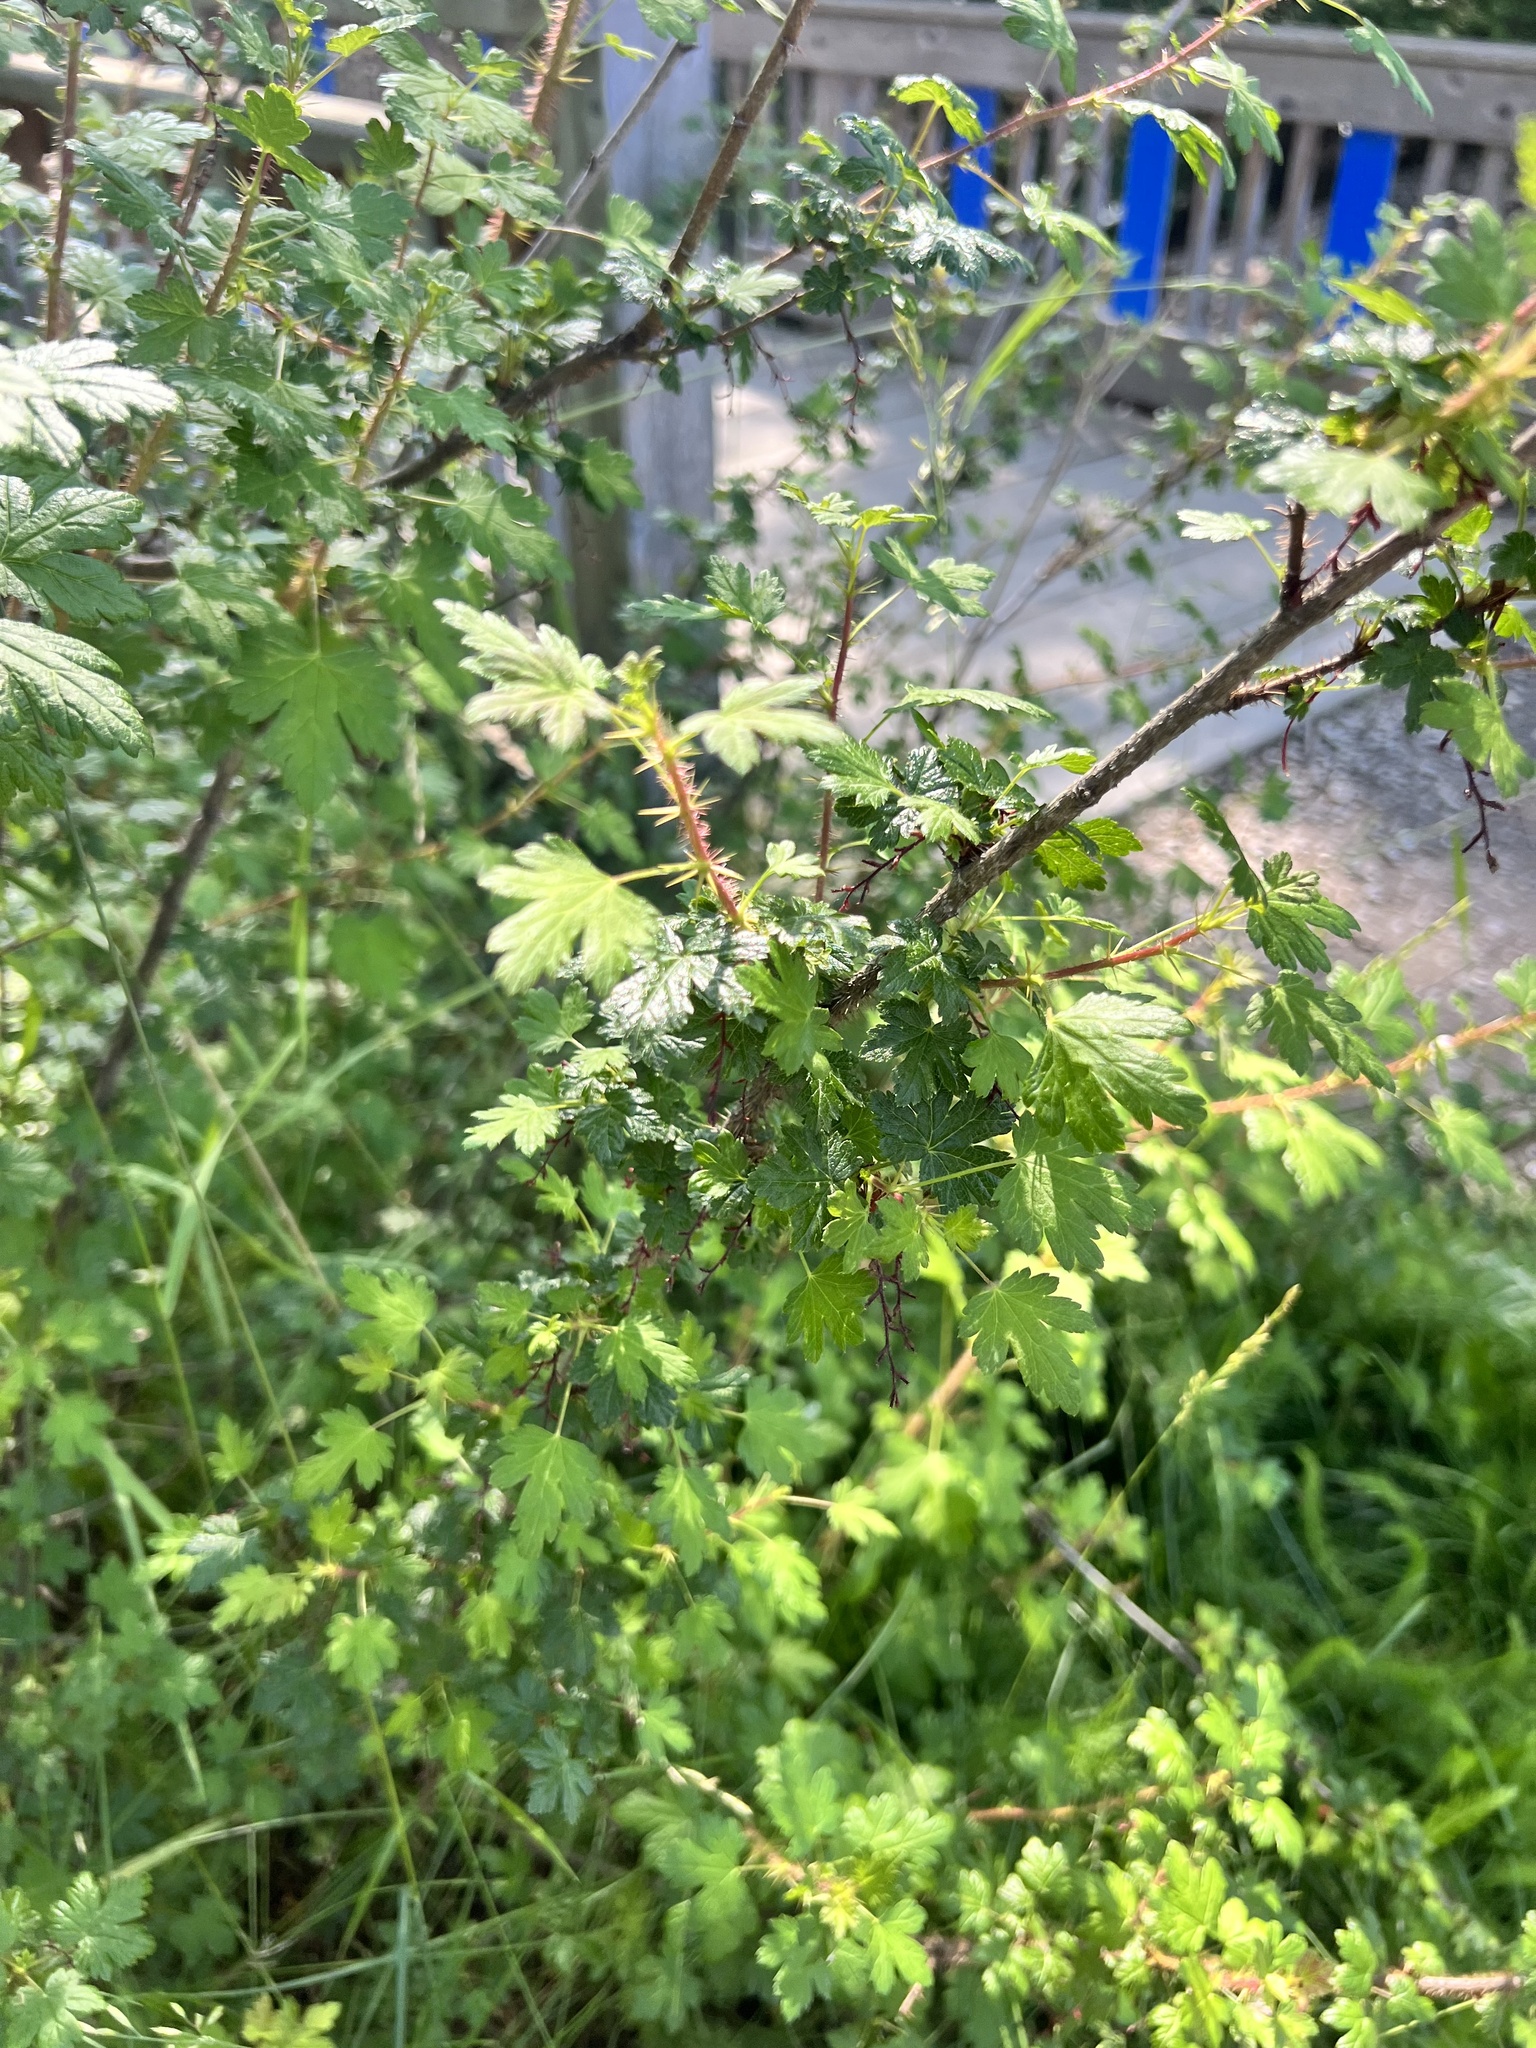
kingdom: Plantae
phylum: Tracheophyta
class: Magnoliopsida
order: Saxifragales
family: Grossulariaceae
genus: Ribes
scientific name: Ribes lacustre
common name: Black gooseberry
